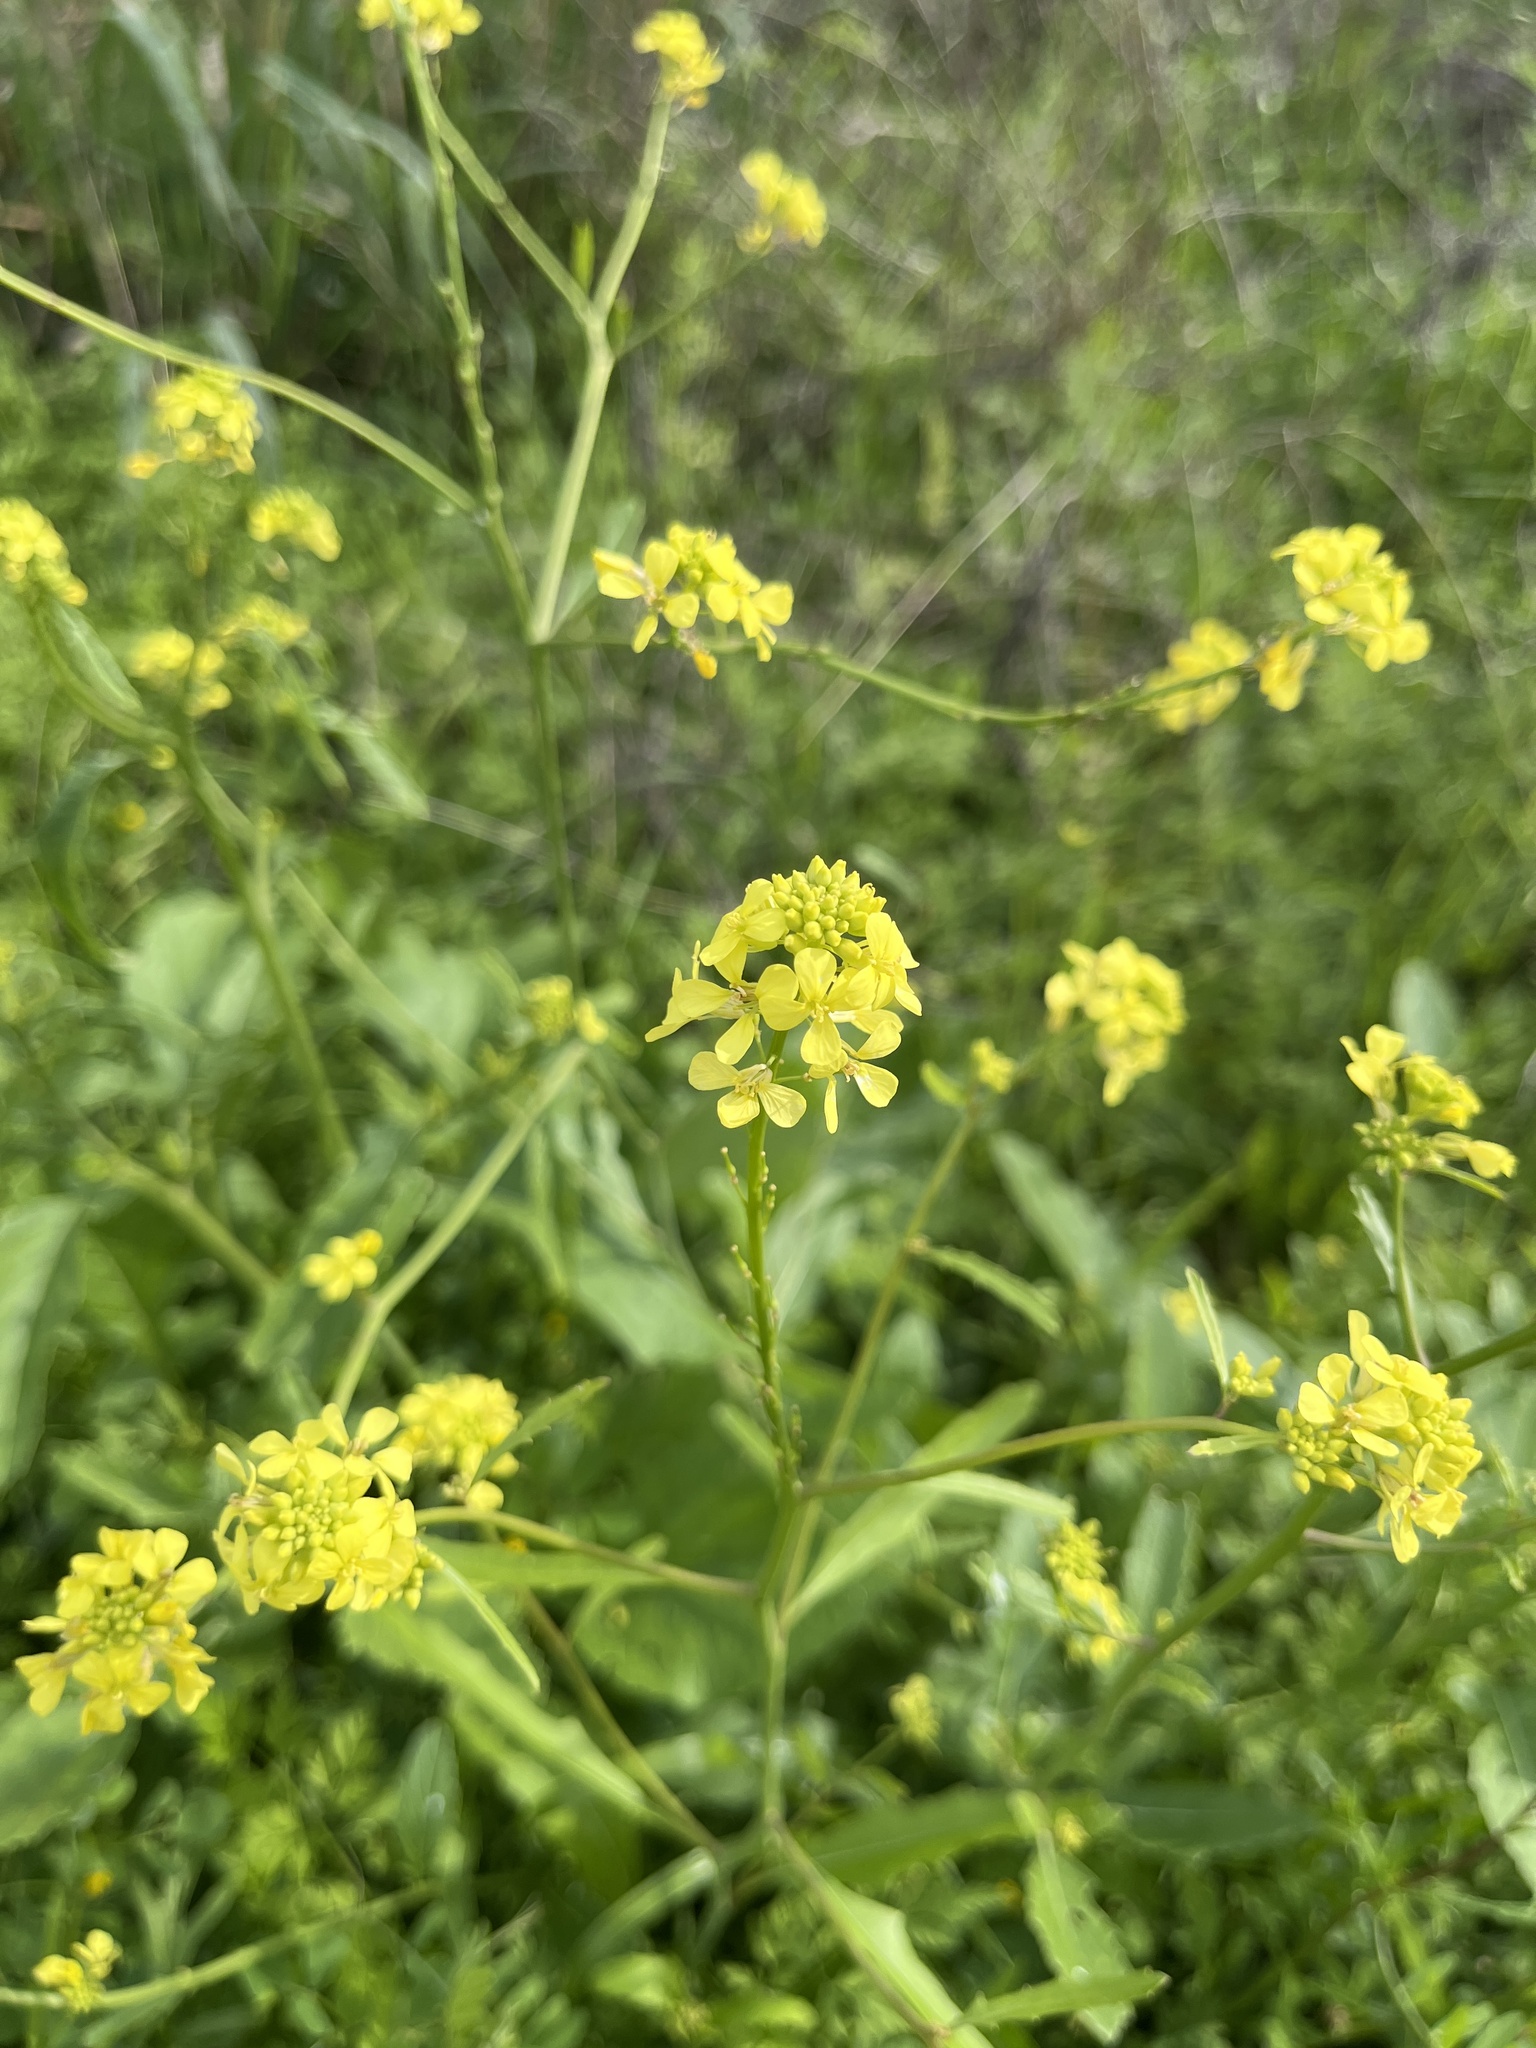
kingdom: Plantae
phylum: Tracheophyta
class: Magnoliopsida
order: Brassicales
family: Brassicaceae
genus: Rapistrum
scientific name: Rapistrum rugosum
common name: Annual bastardcabbage
